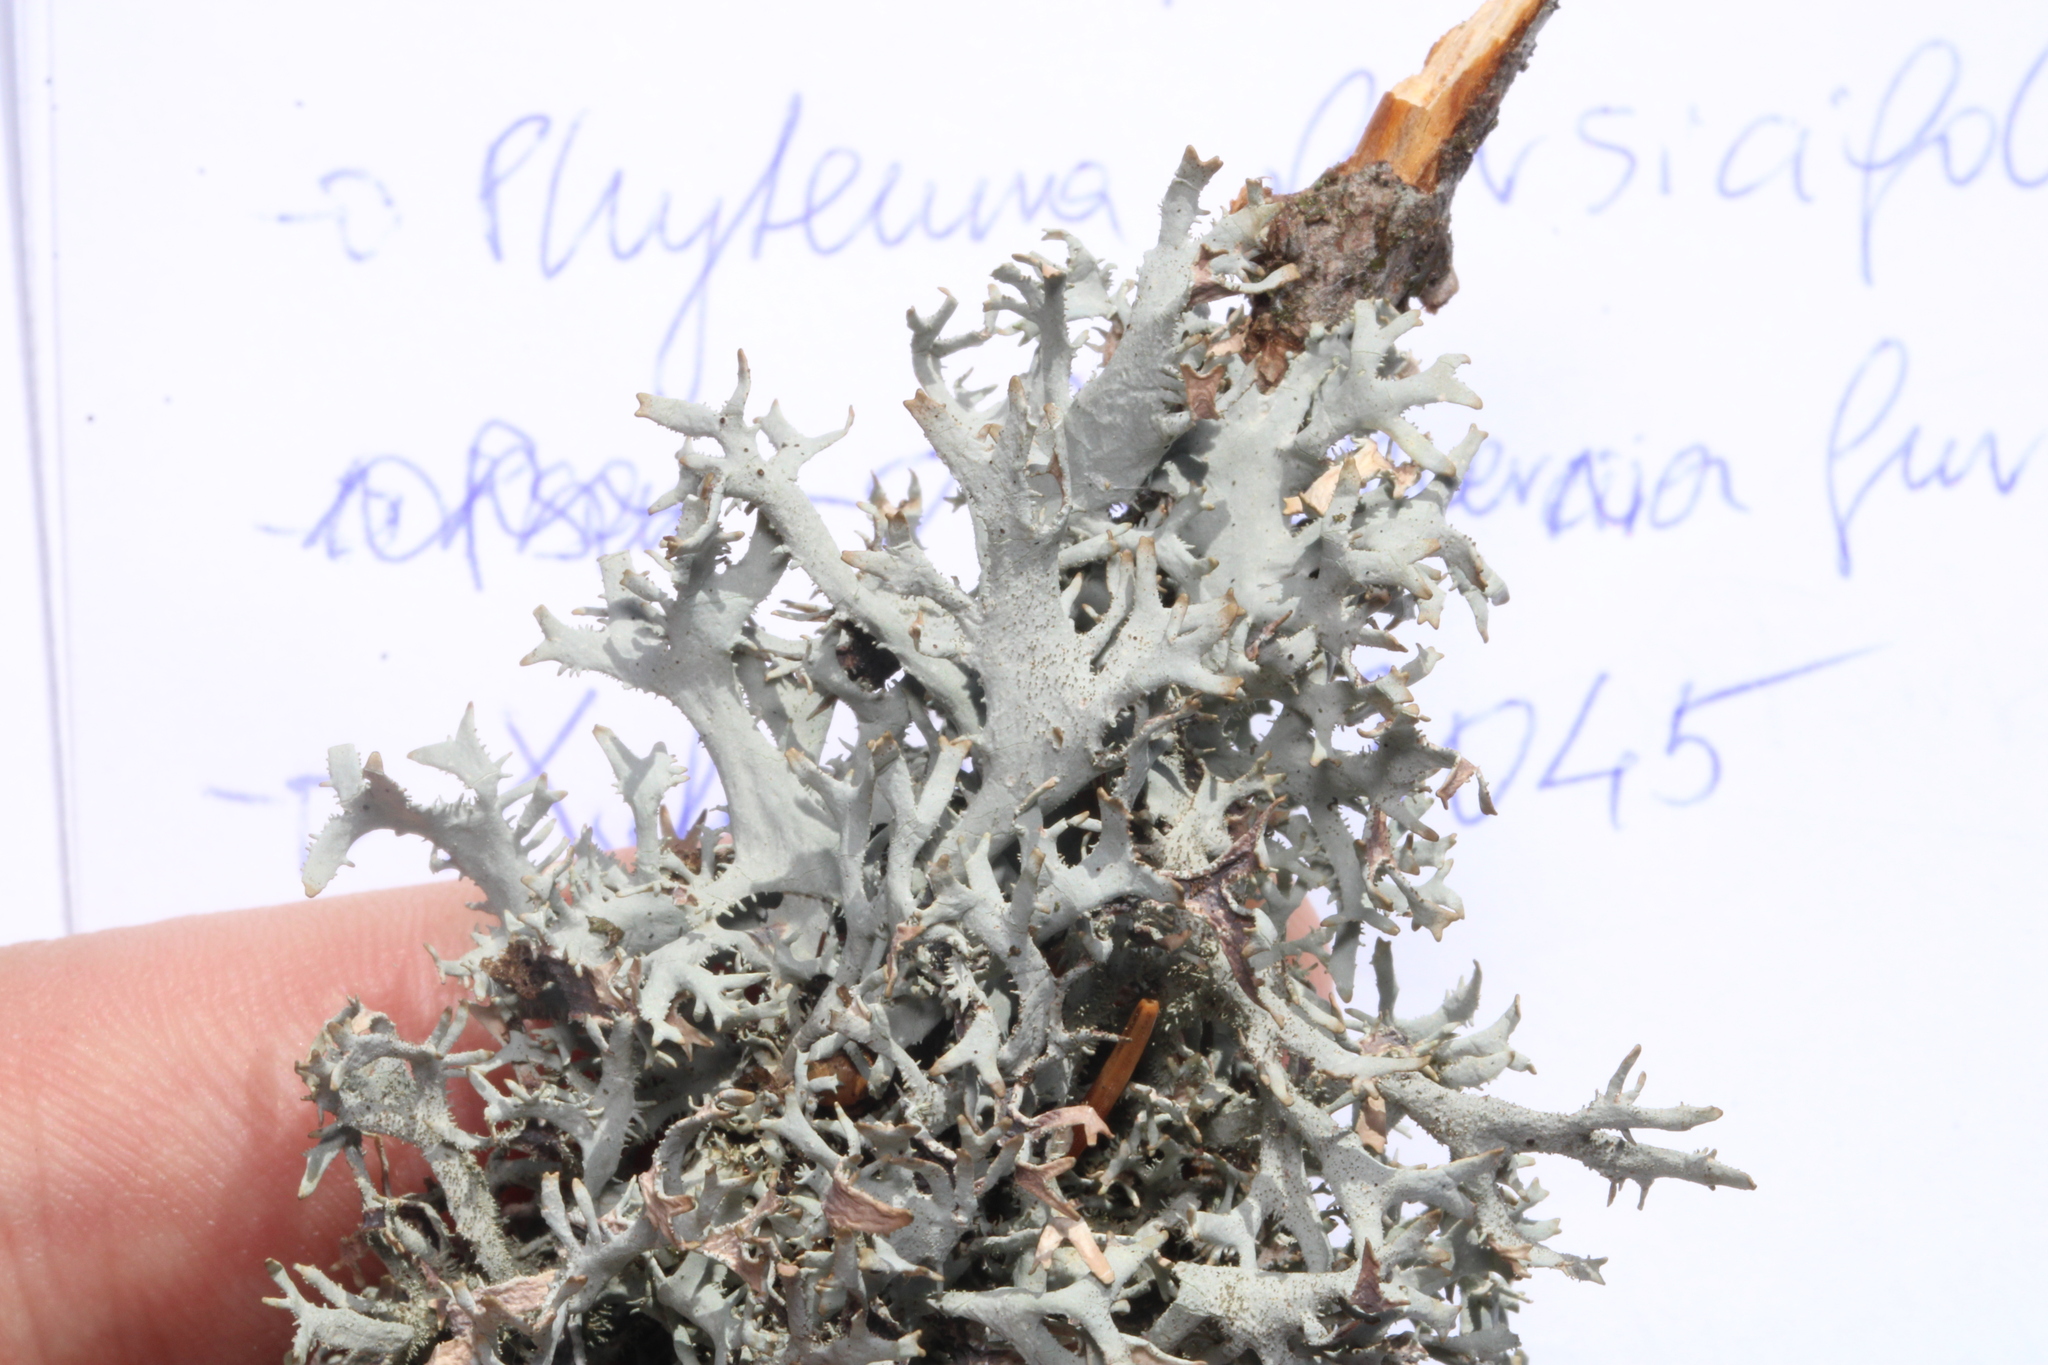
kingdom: Fungi
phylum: Ascomycota
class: Lecanoromycetes
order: Lecanorales
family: Parmeliaceae
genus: Pseudevernia
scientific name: Pseudevernia furfuracea
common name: Tree moss
